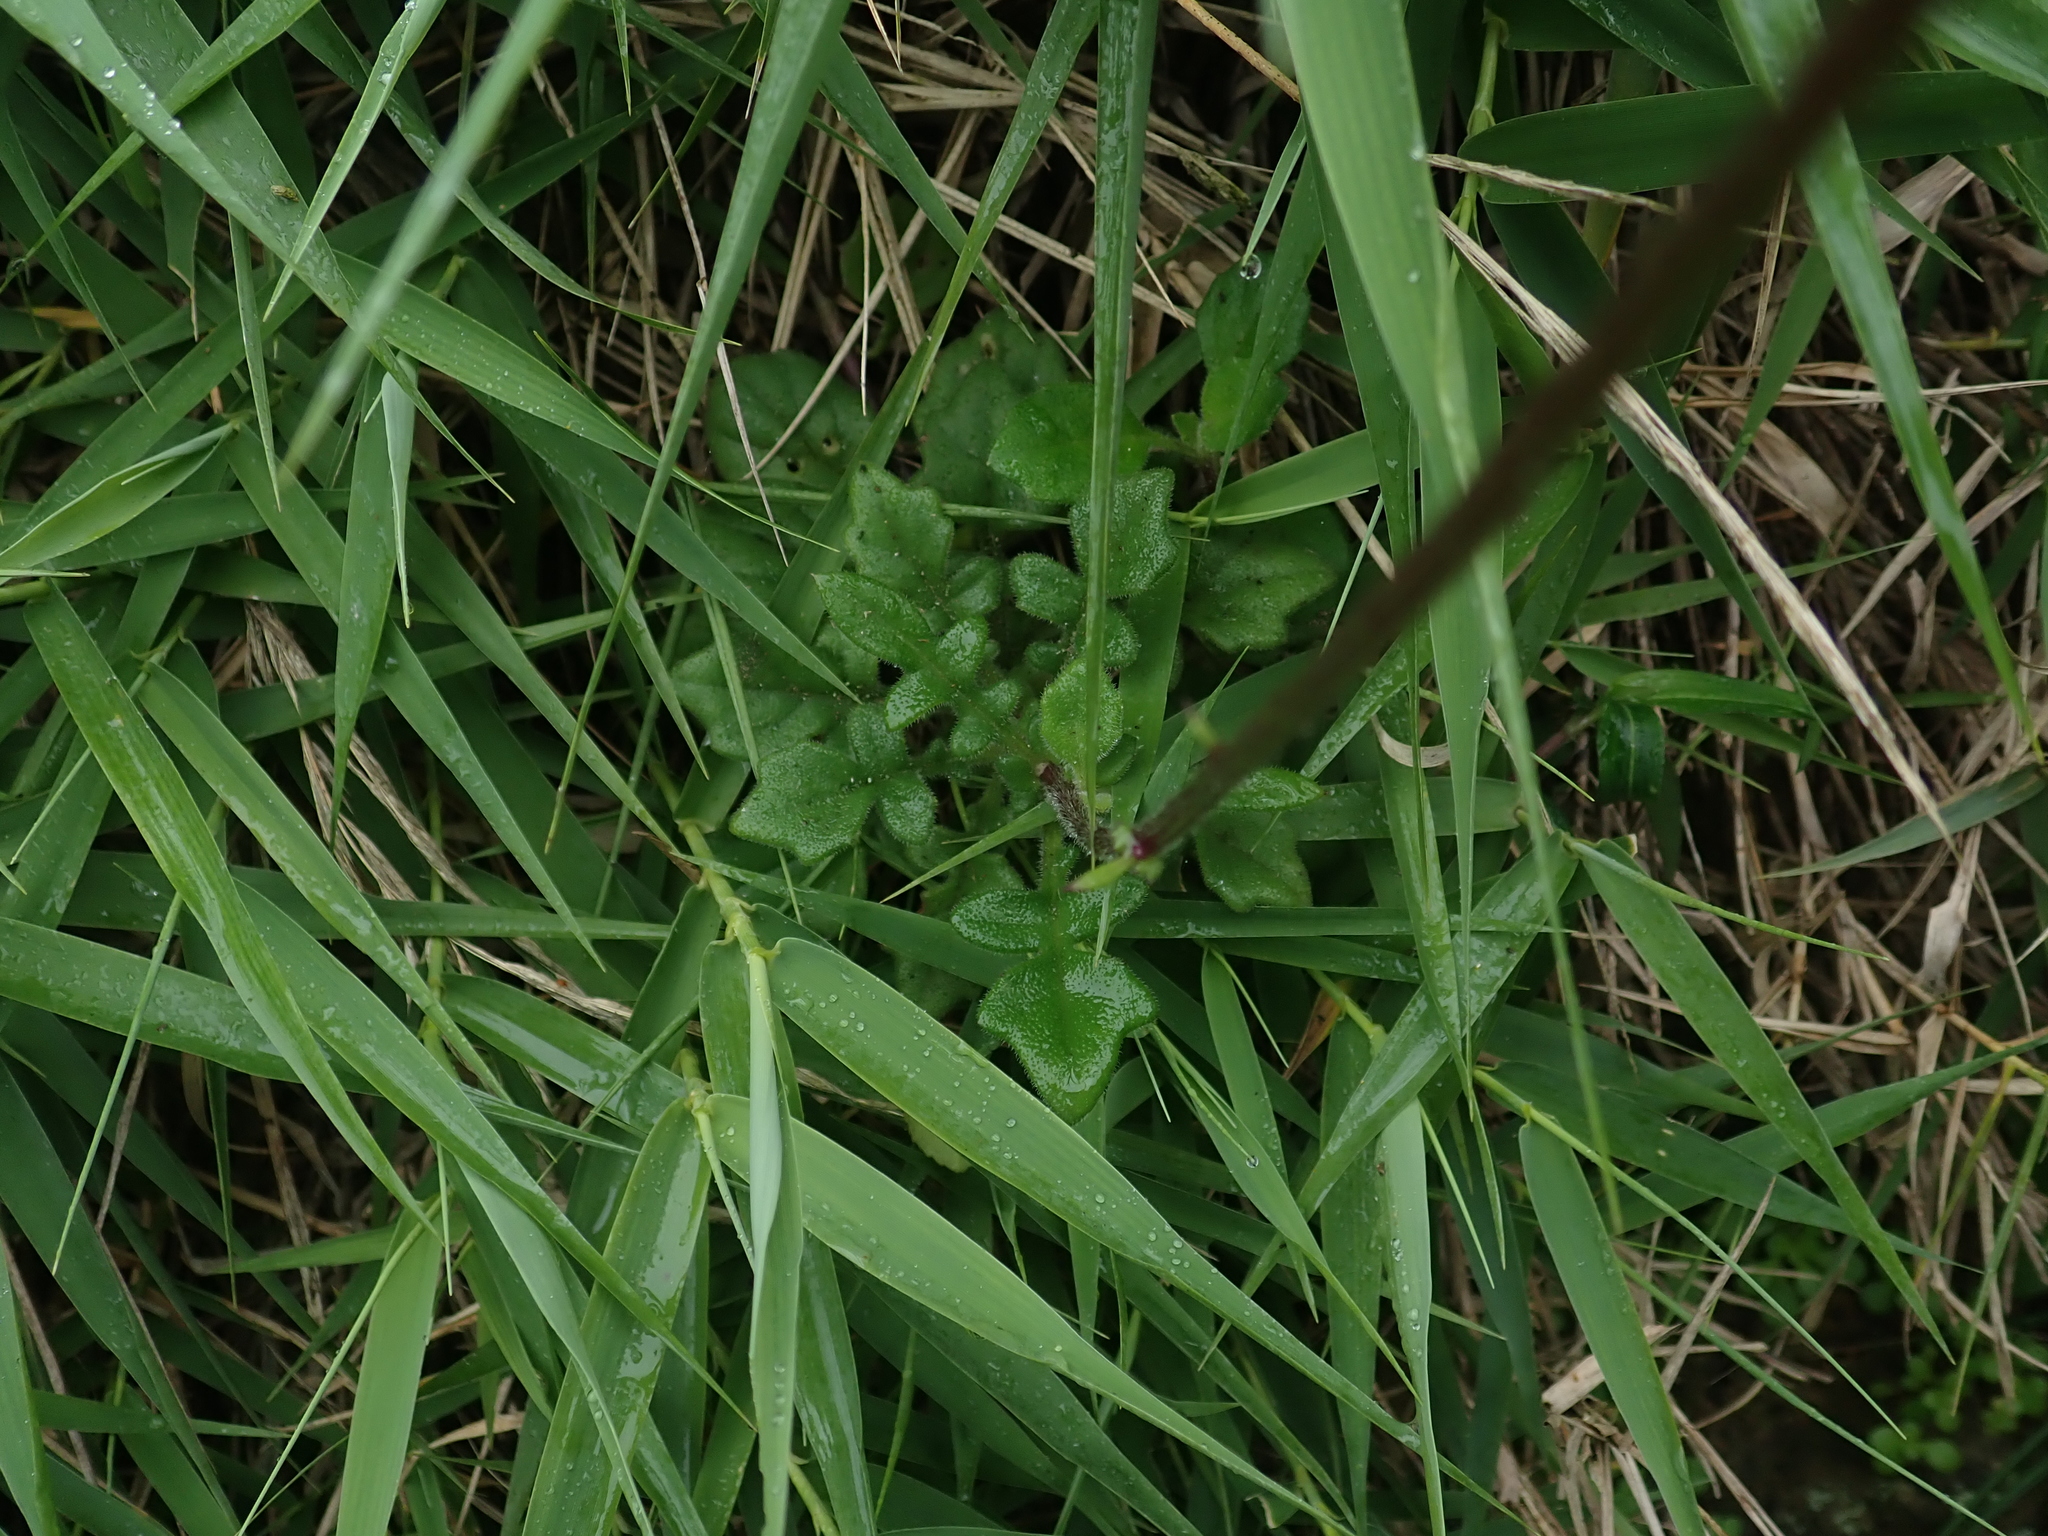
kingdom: Plantae
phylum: Tracheophyta
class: Magnoliopsida
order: Asterales
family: Asteraceae
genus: Gynura
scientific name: Gynura formosana
